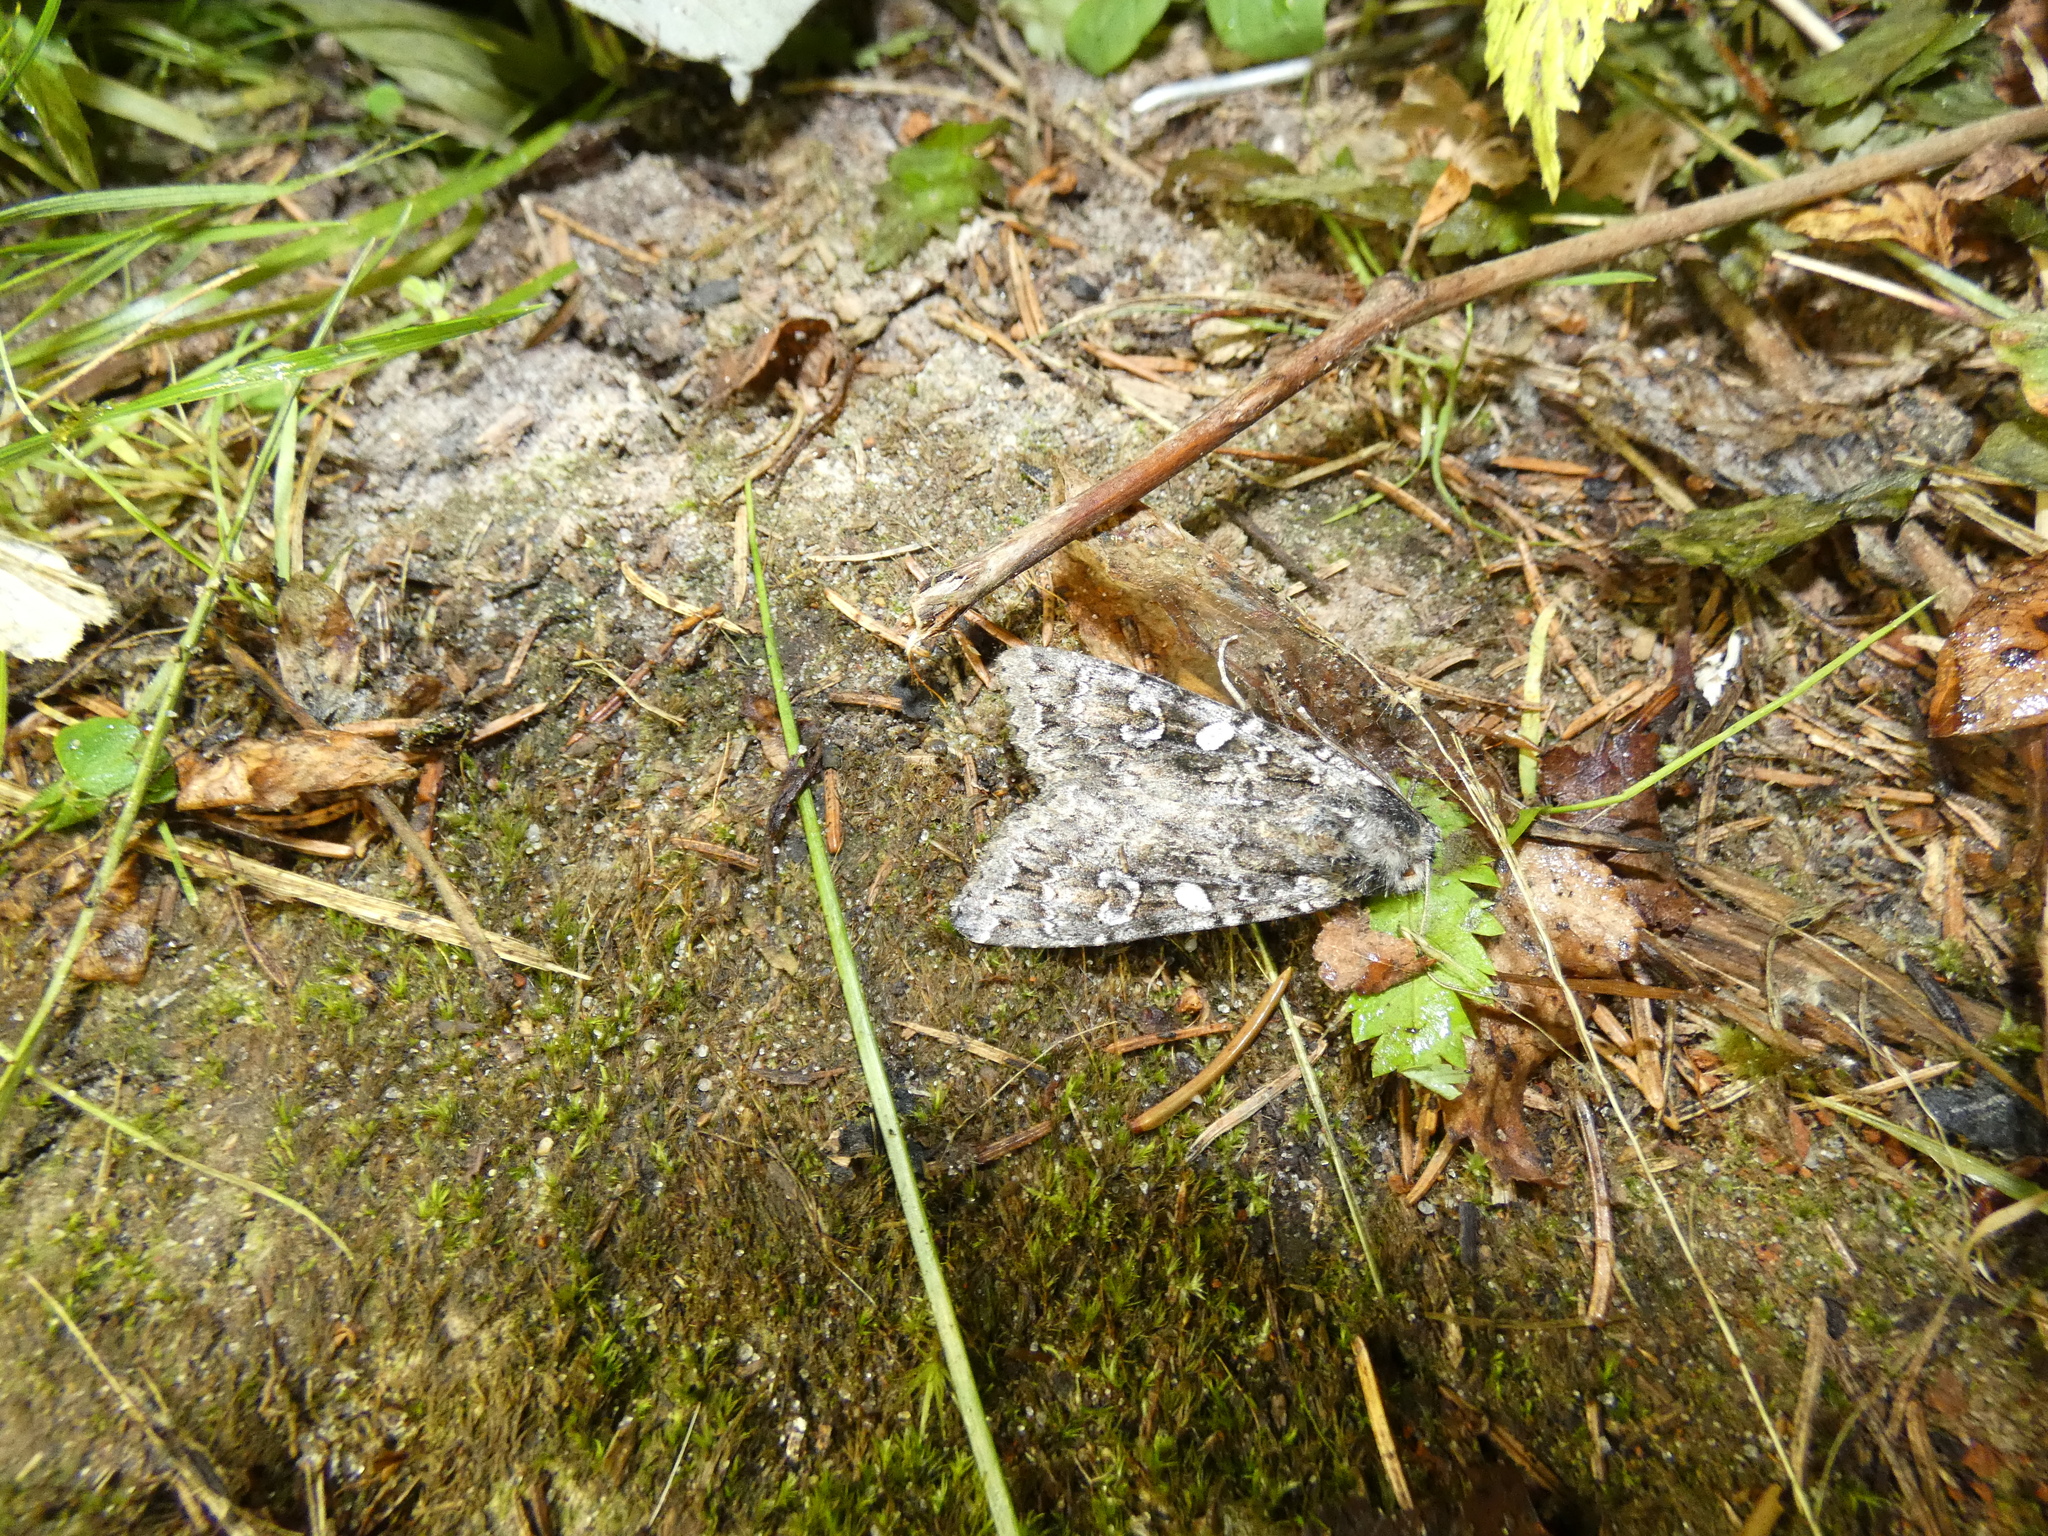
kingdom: Animalia
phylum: Arthropoda
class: Insecta
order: Lepidoptera
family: Noctuidae
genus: Eurois
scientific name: Eurois occulta
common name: Great brocade
